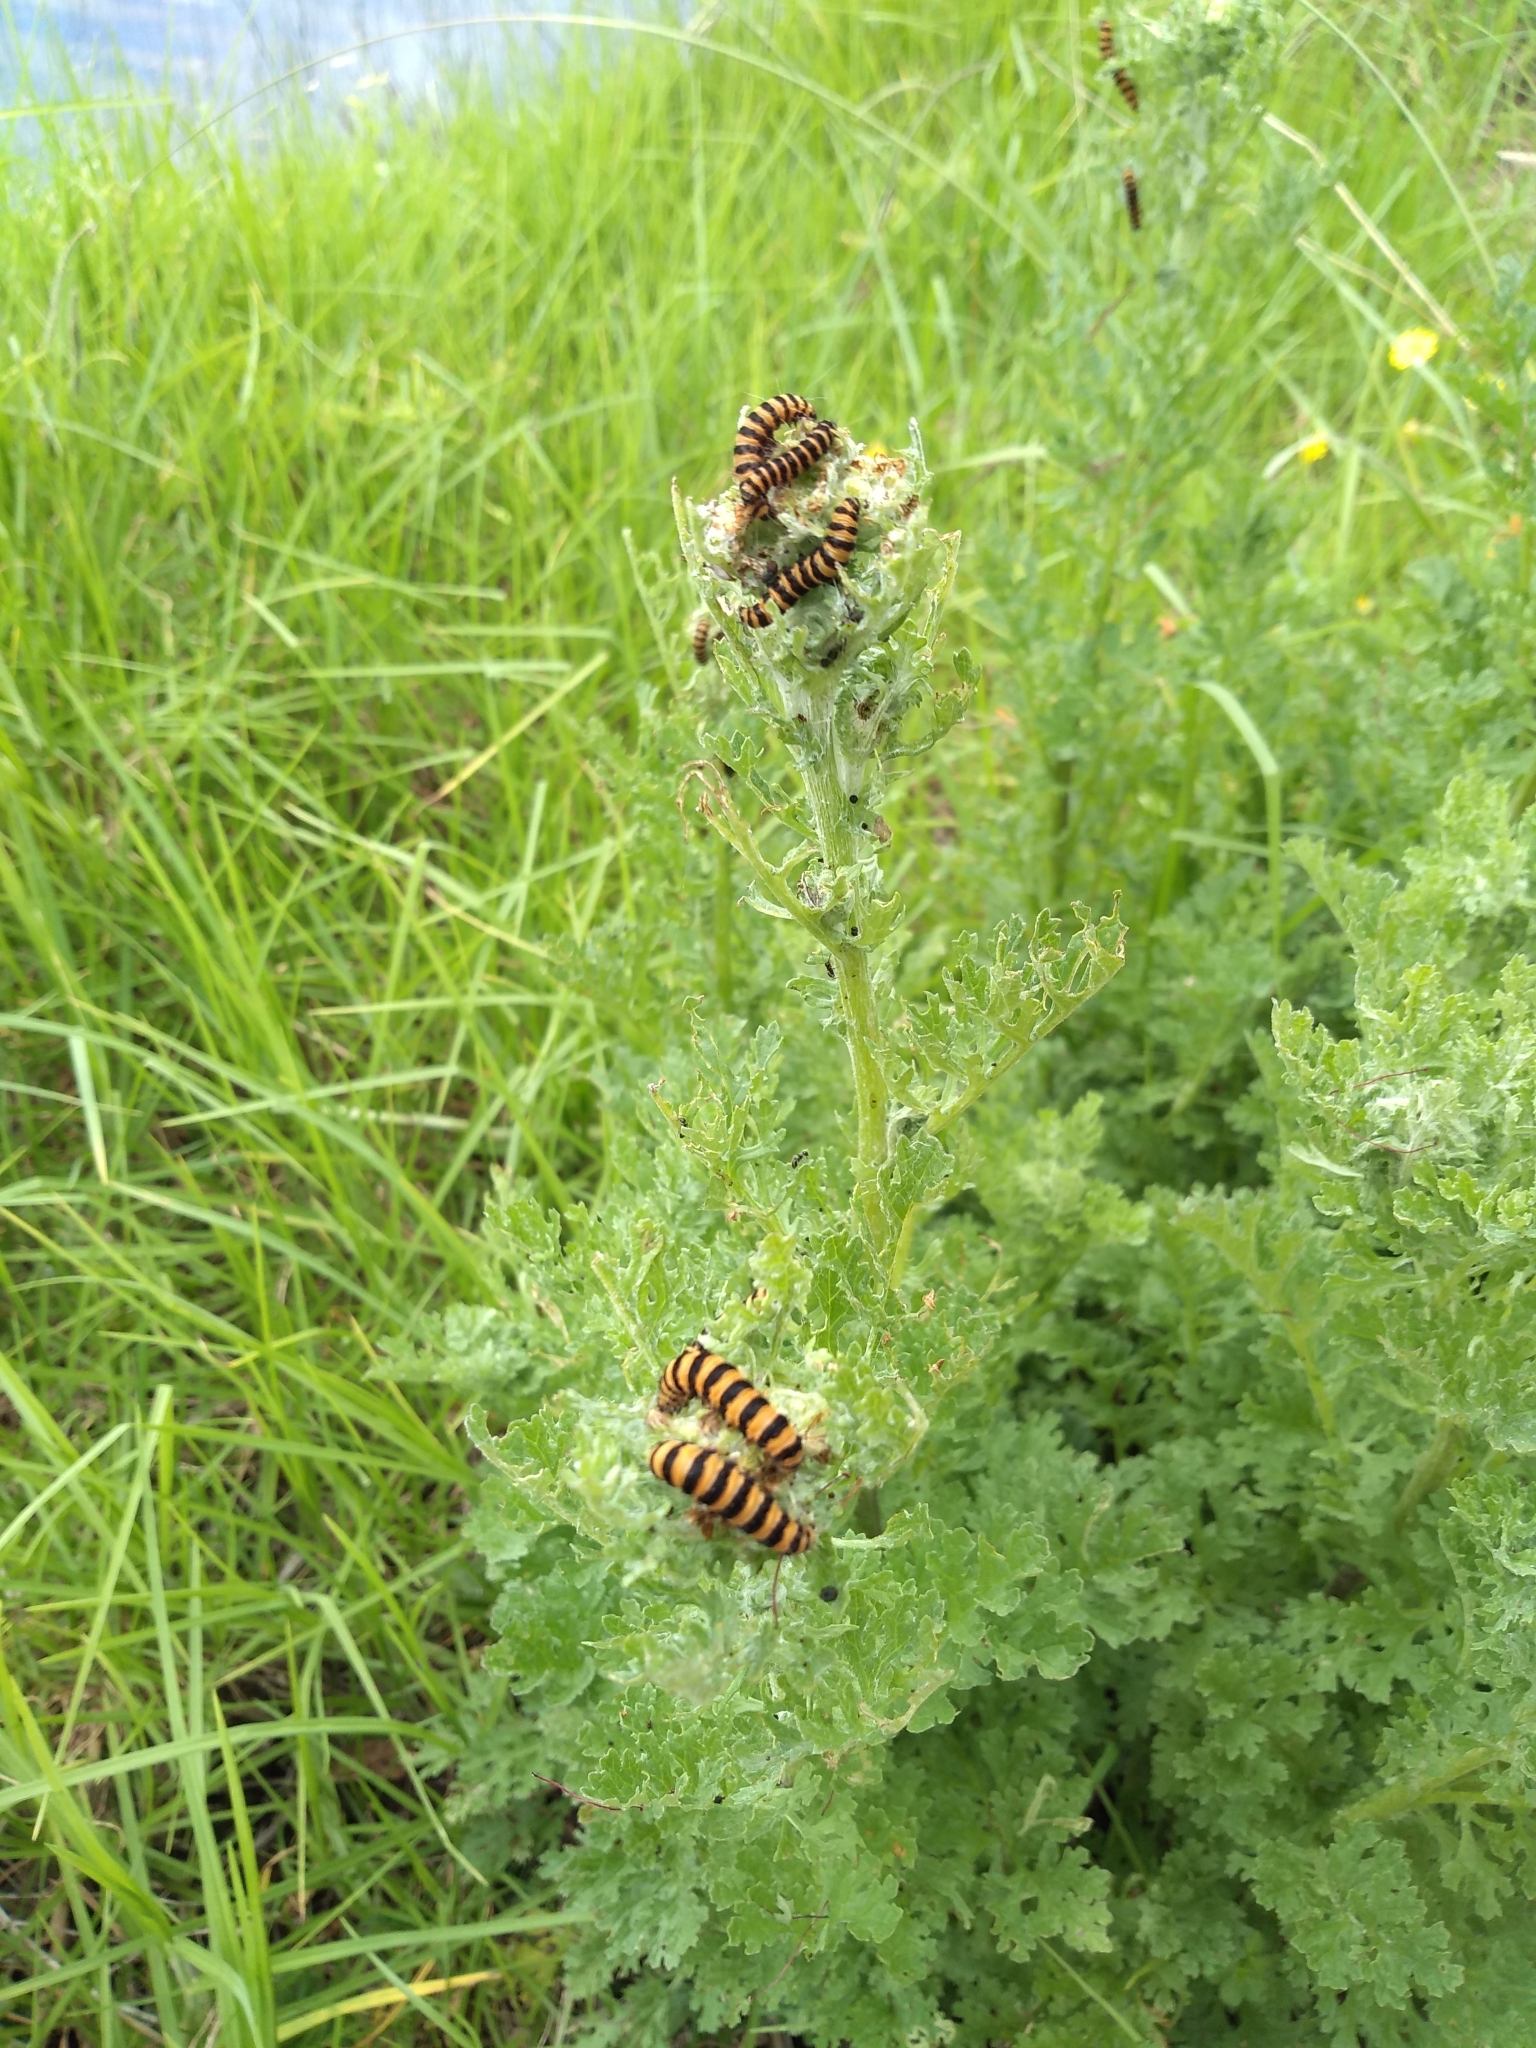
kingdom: Plantae
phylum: Tracheophyta
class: Magnoliopsida
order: Asterales
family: Asteraceae
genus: Jacobaea
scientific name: Jacobaea vulgaris
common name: Stinking willie
